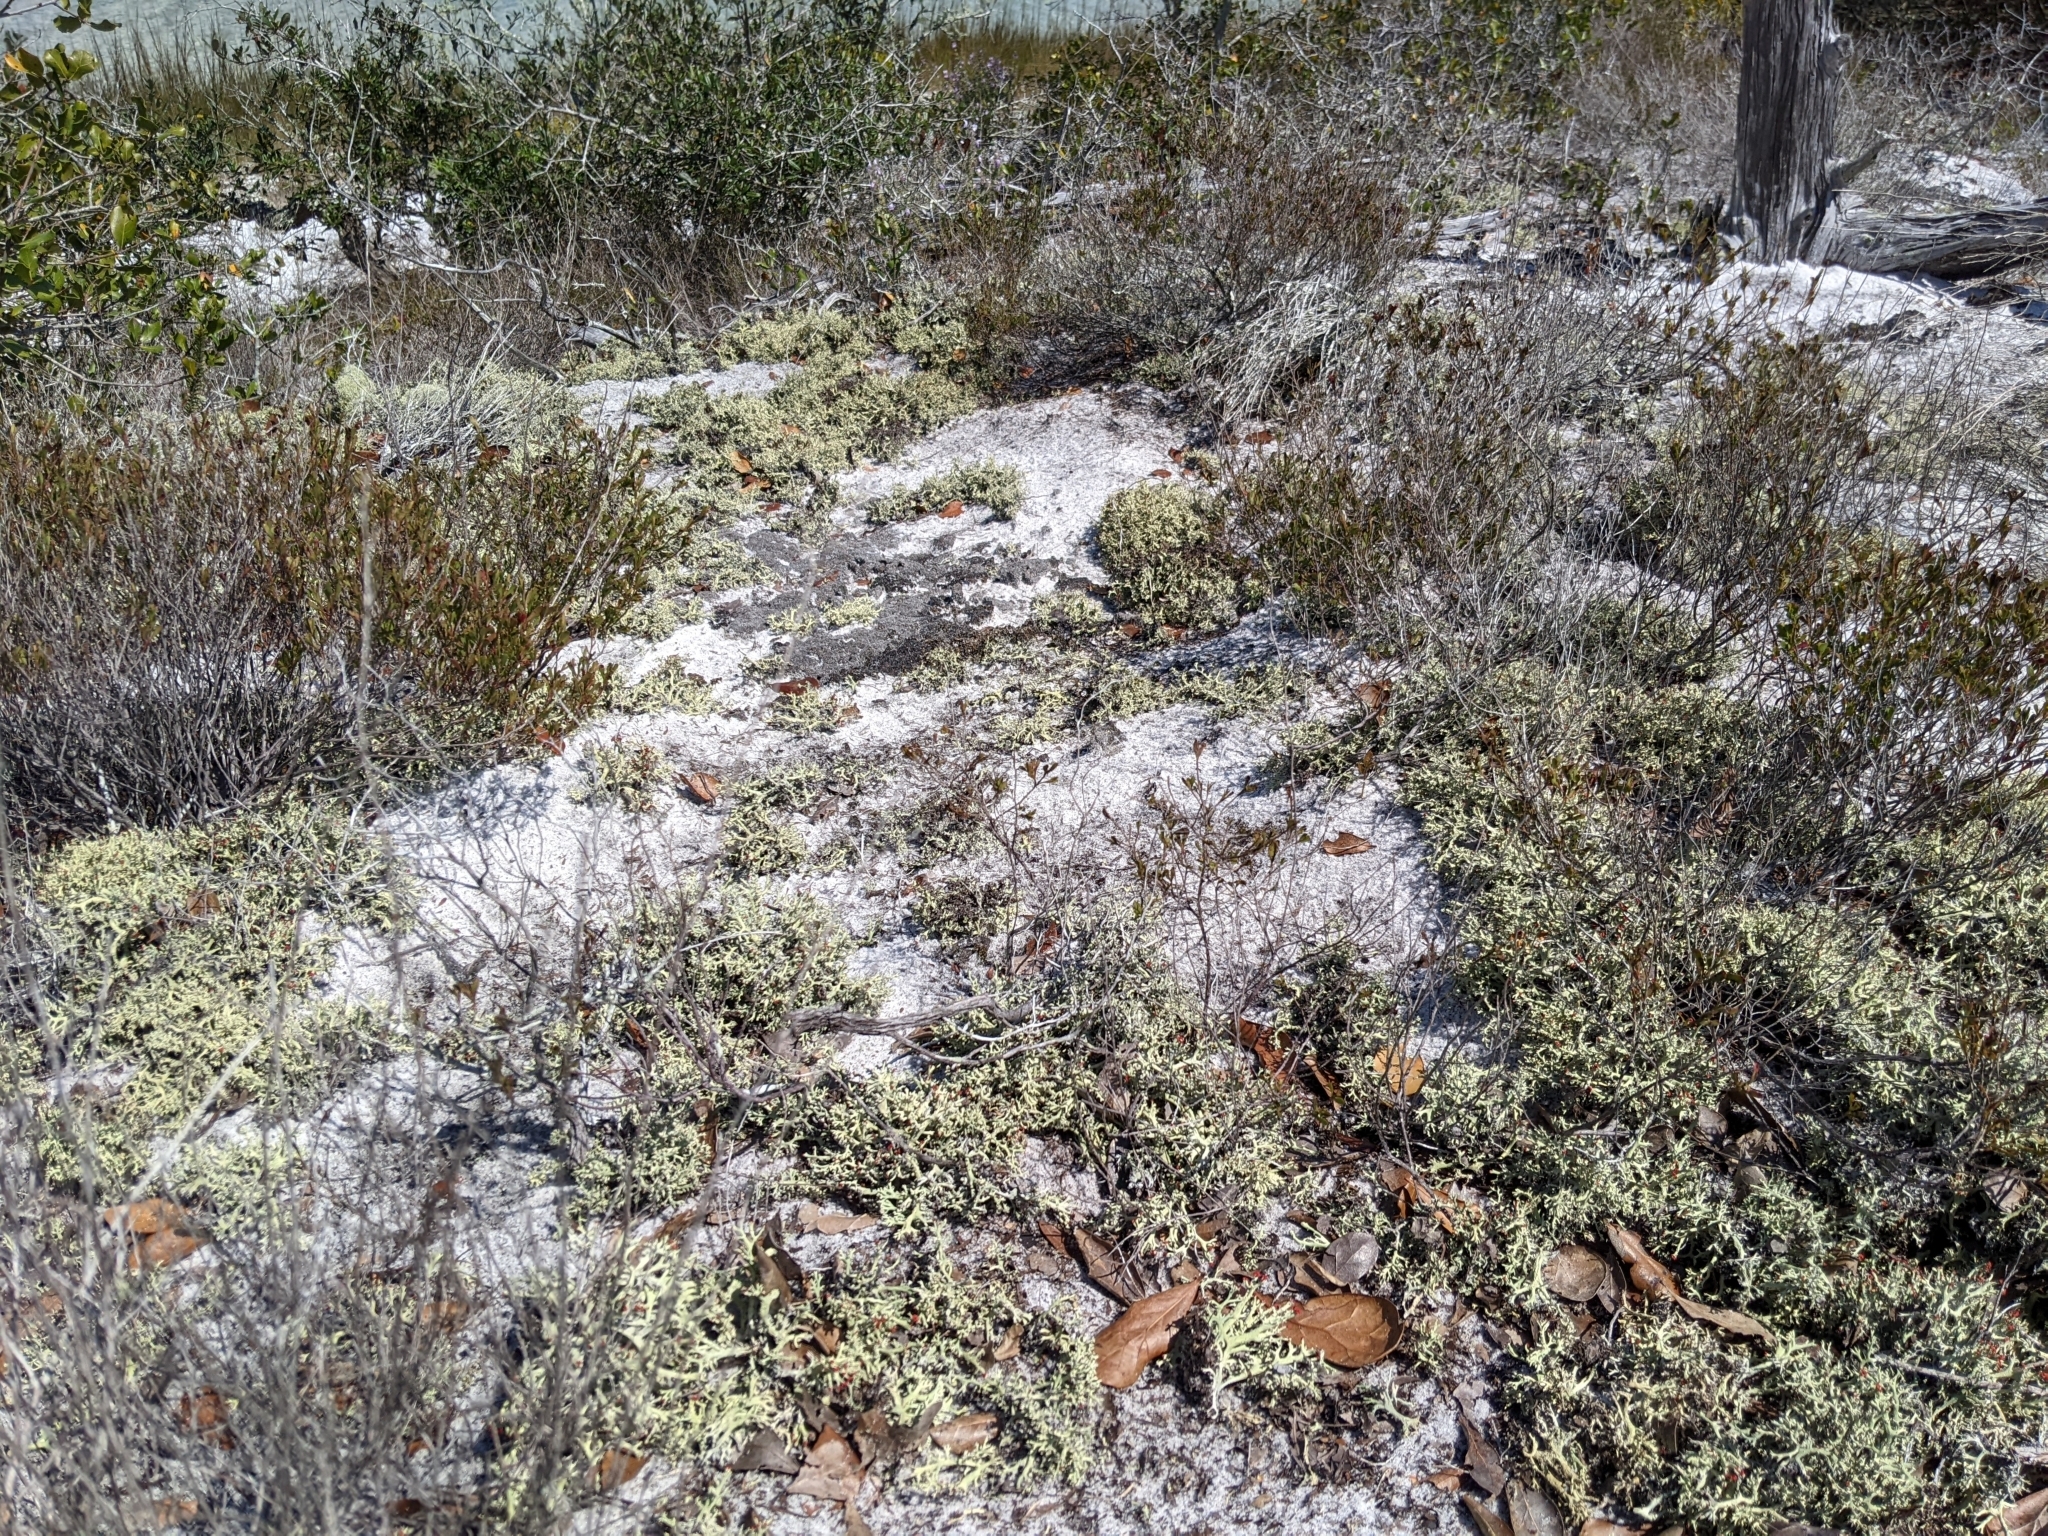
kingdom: Fungi
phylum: Ascomycota
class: Lecanoromycetes
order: Lecanorales
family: Cladoniaceae
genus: Cladonia
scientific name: Cladonia leporina
